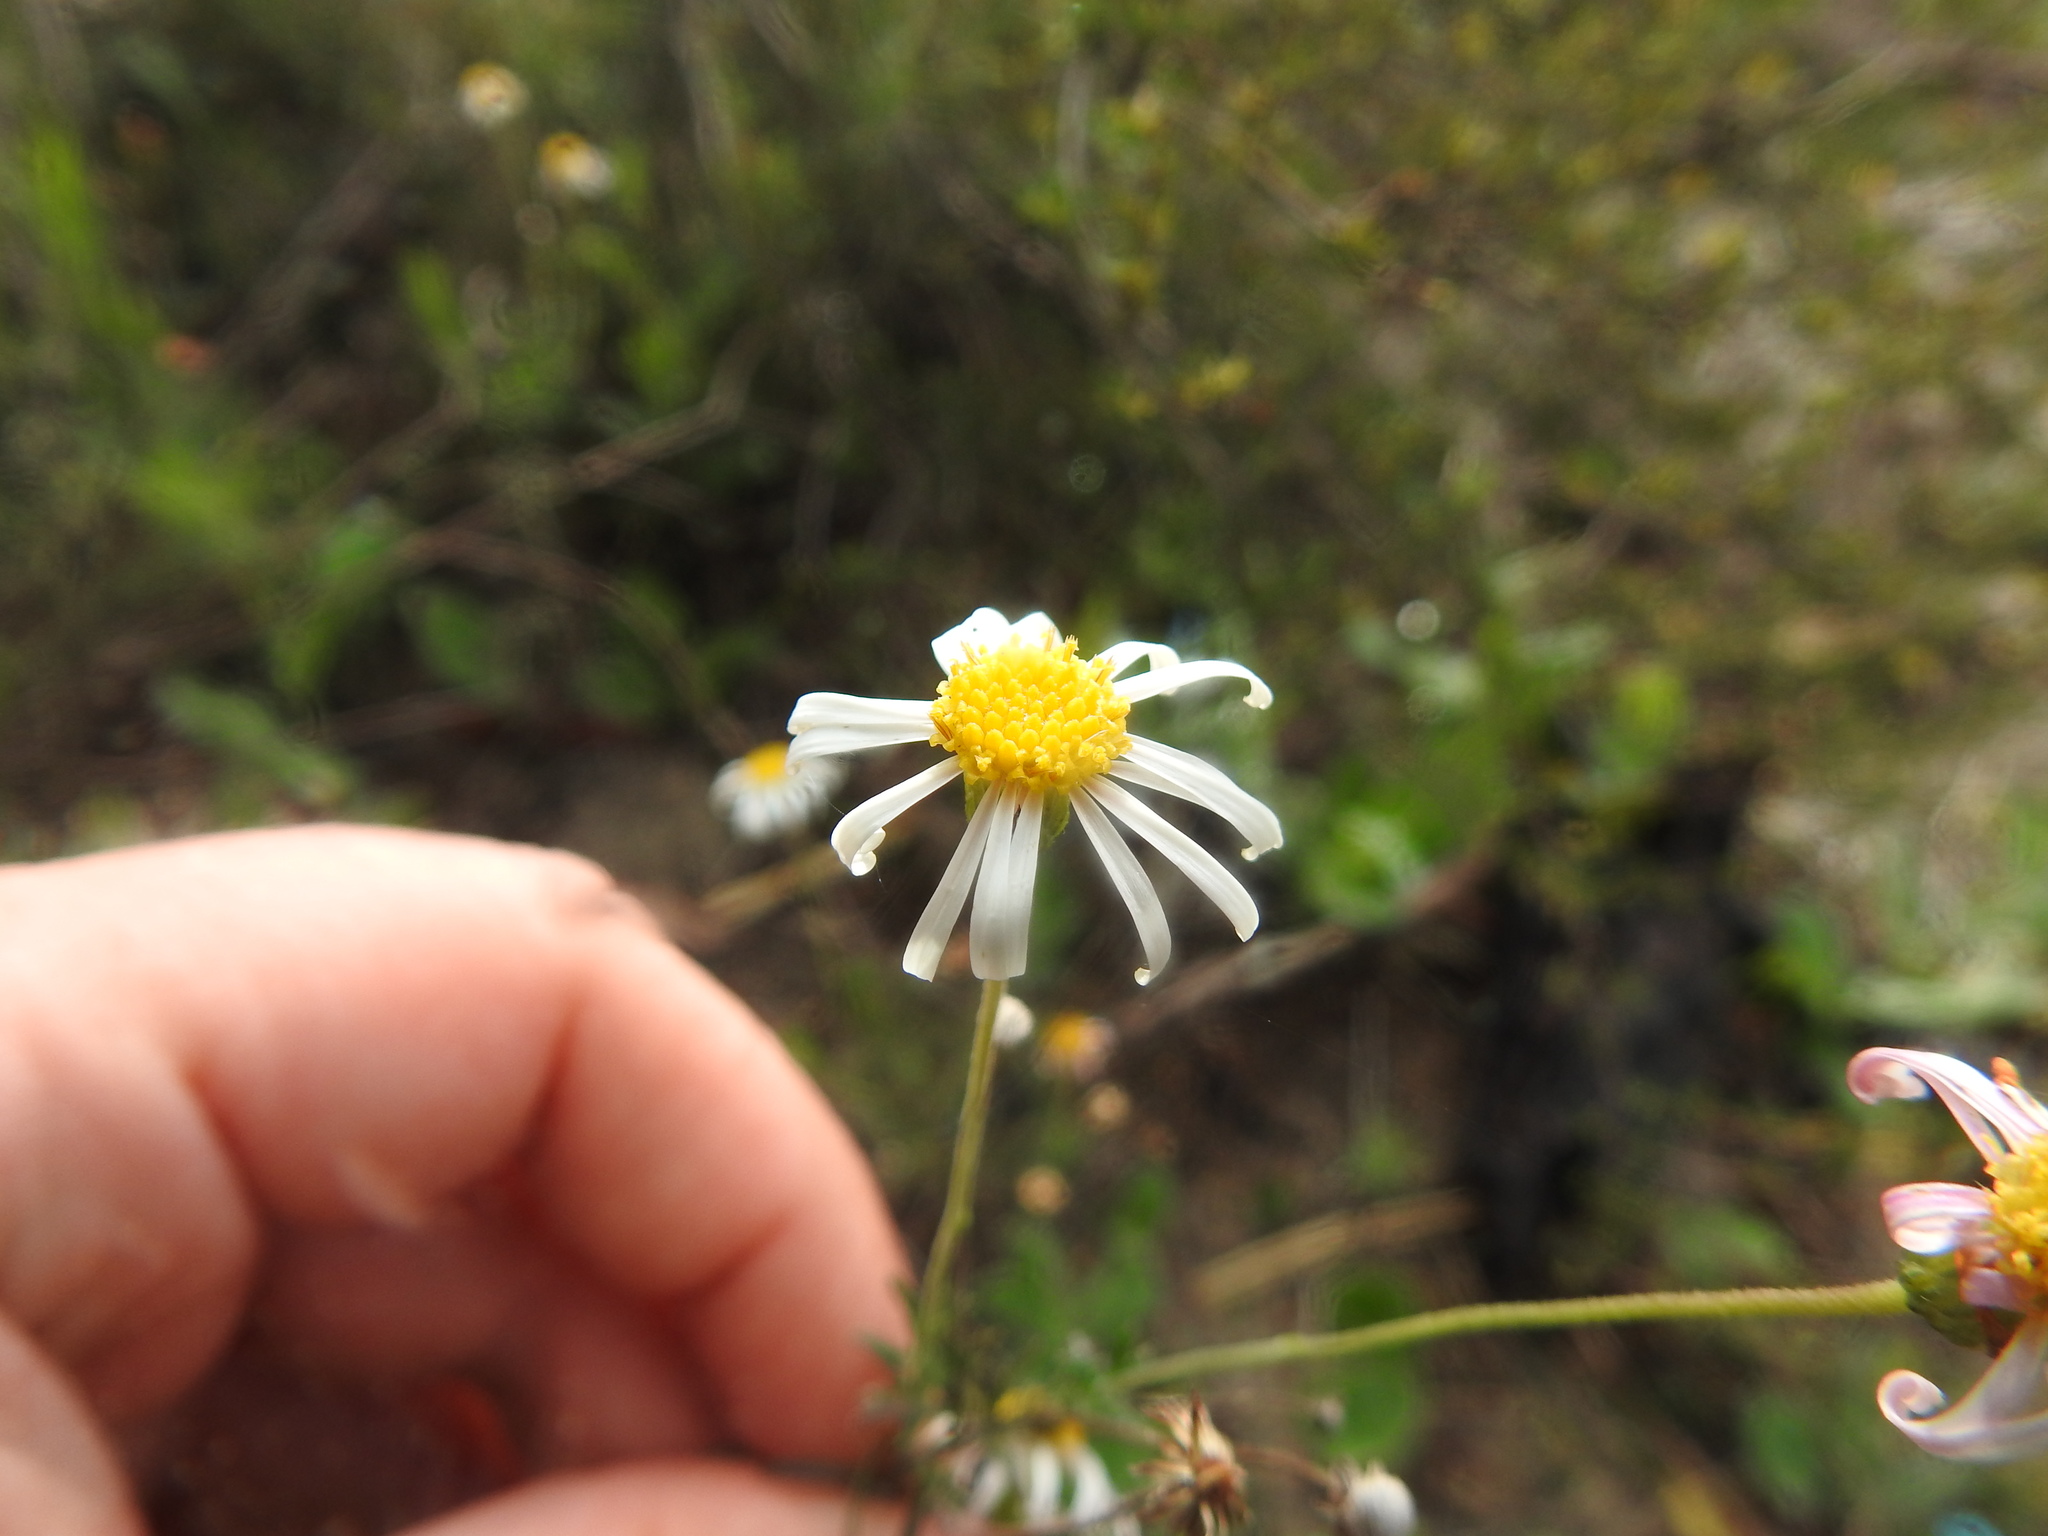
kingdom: Plantae
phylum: Tracheophyta
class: Magnoliopsida
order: Asterales
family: Asteraceae
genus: Felicia
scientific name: Felicia hyssopifolia
